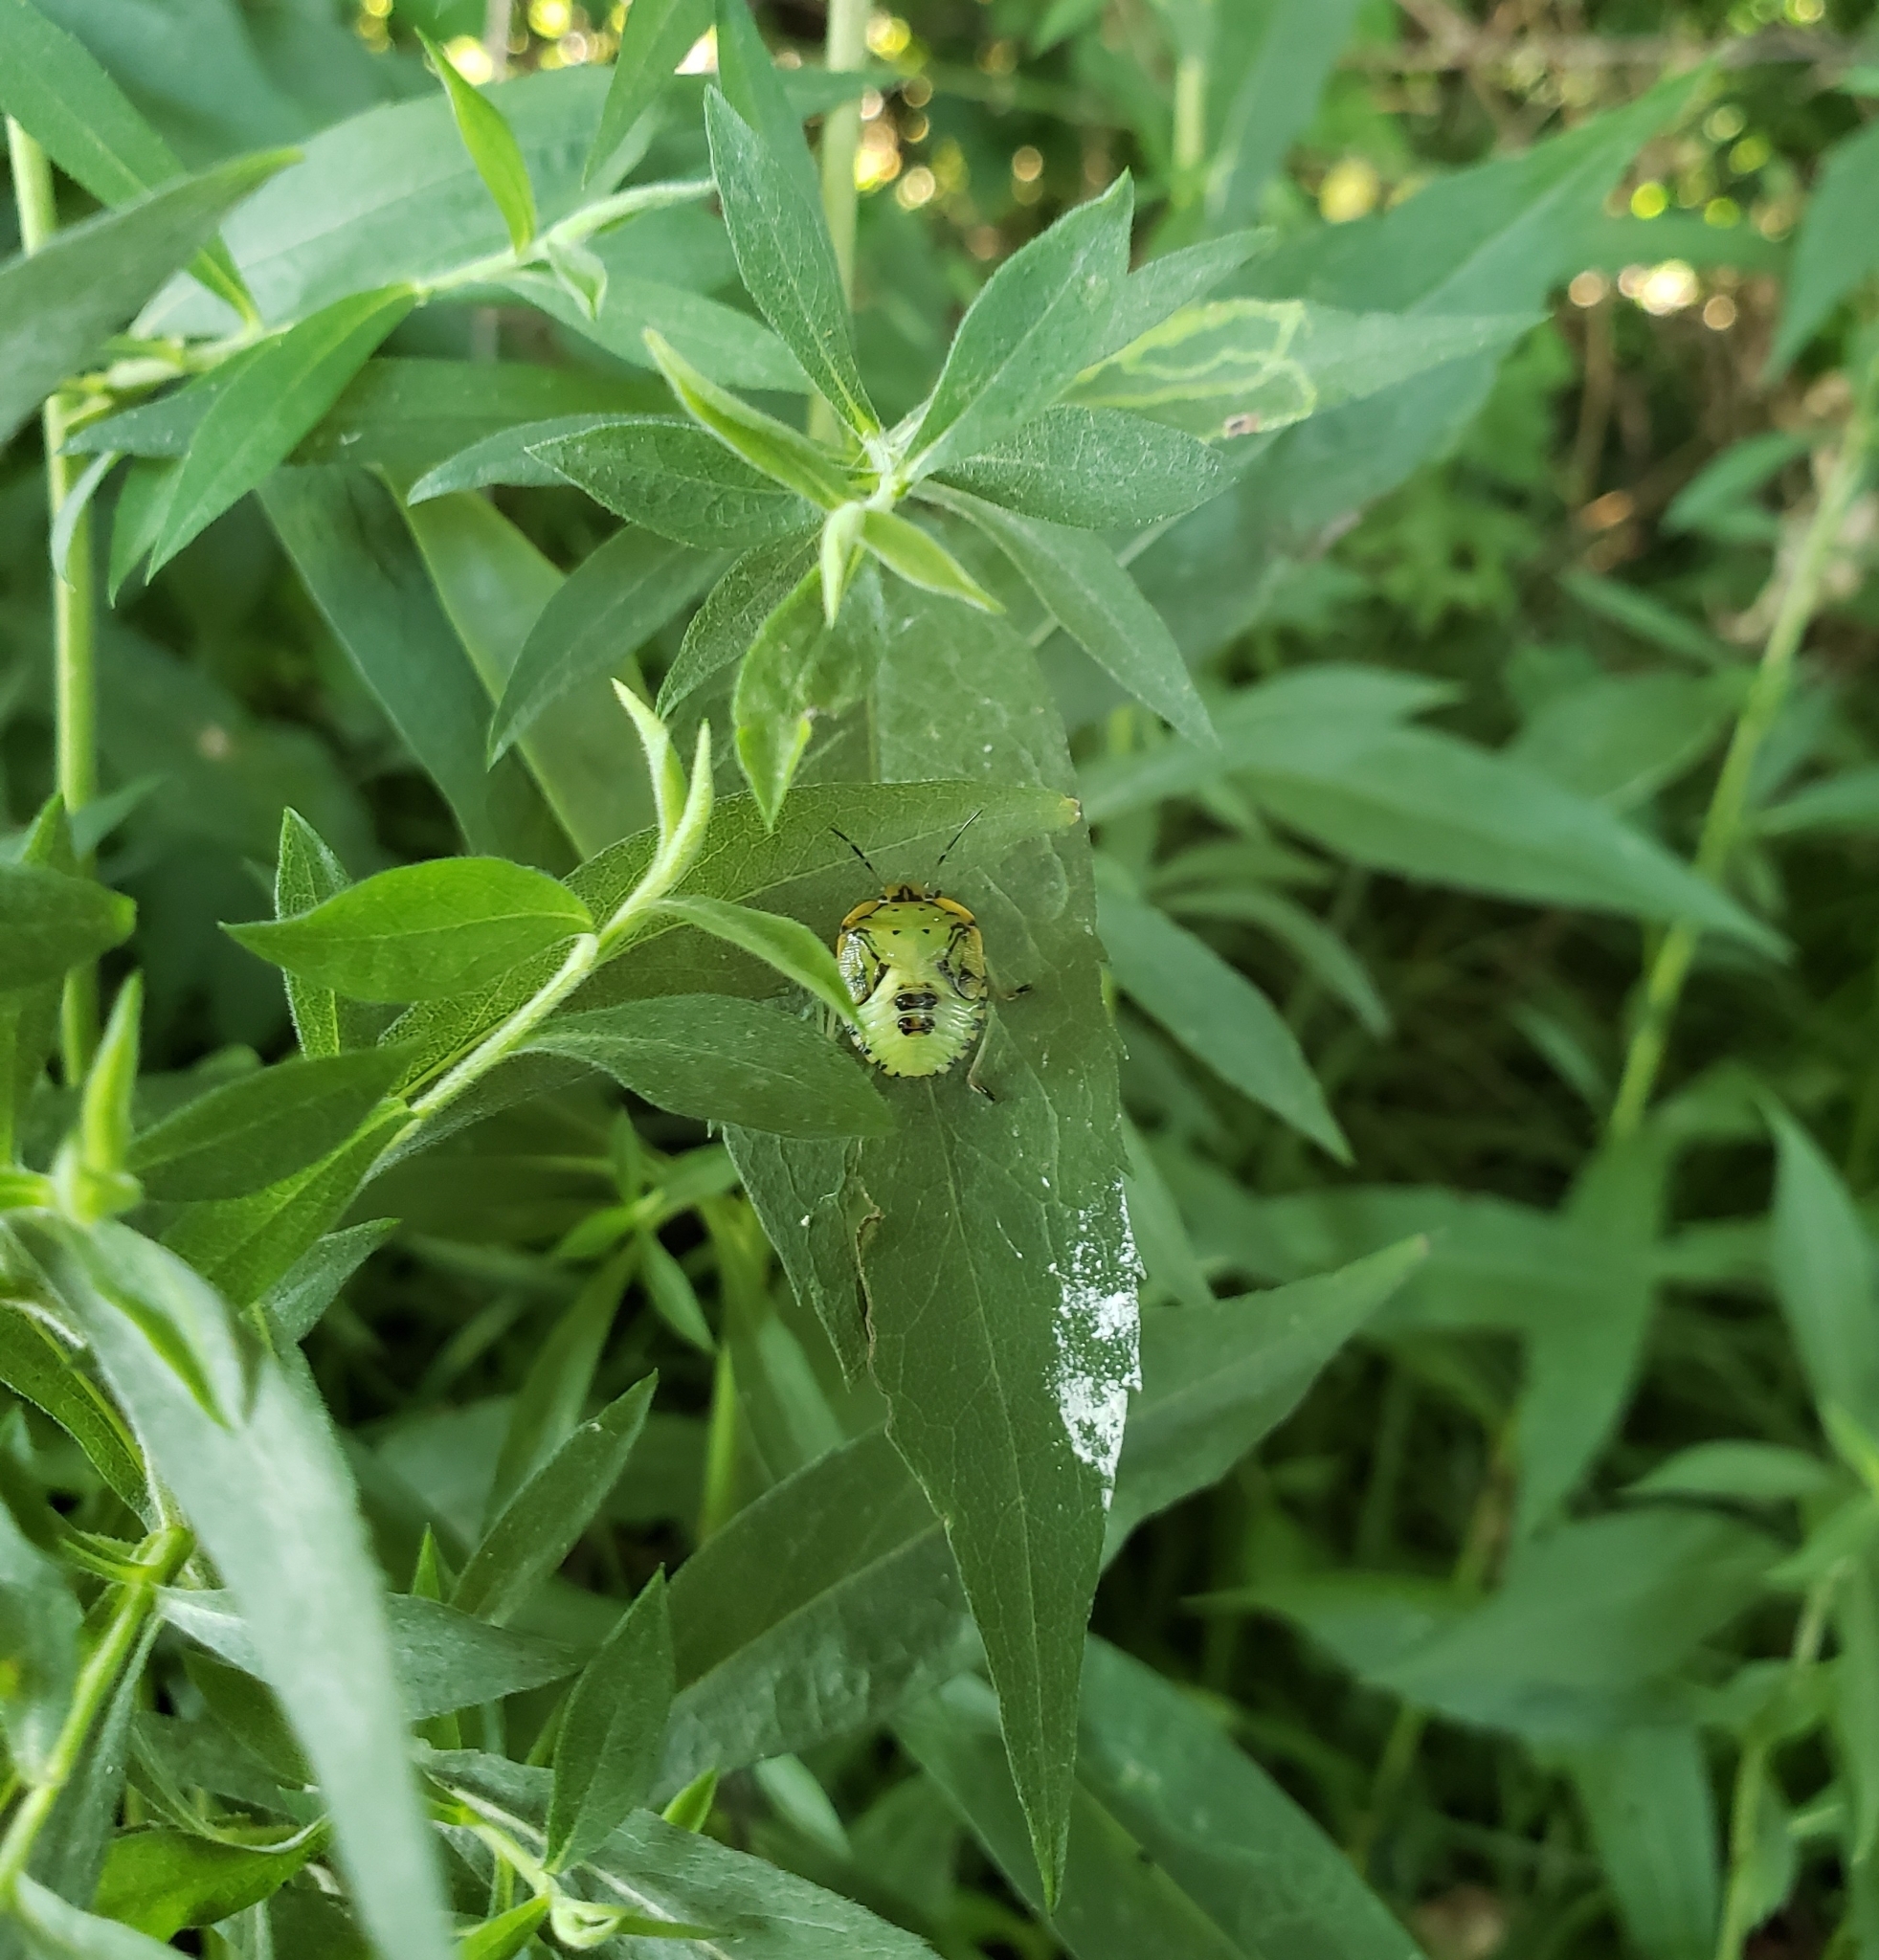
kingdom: Animalia
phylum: Arthropoda
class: Insecta
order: Hemiptera
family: Pentatomidae
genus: Chinavia
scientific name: Chinavia hilaris
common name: Green stink bug
